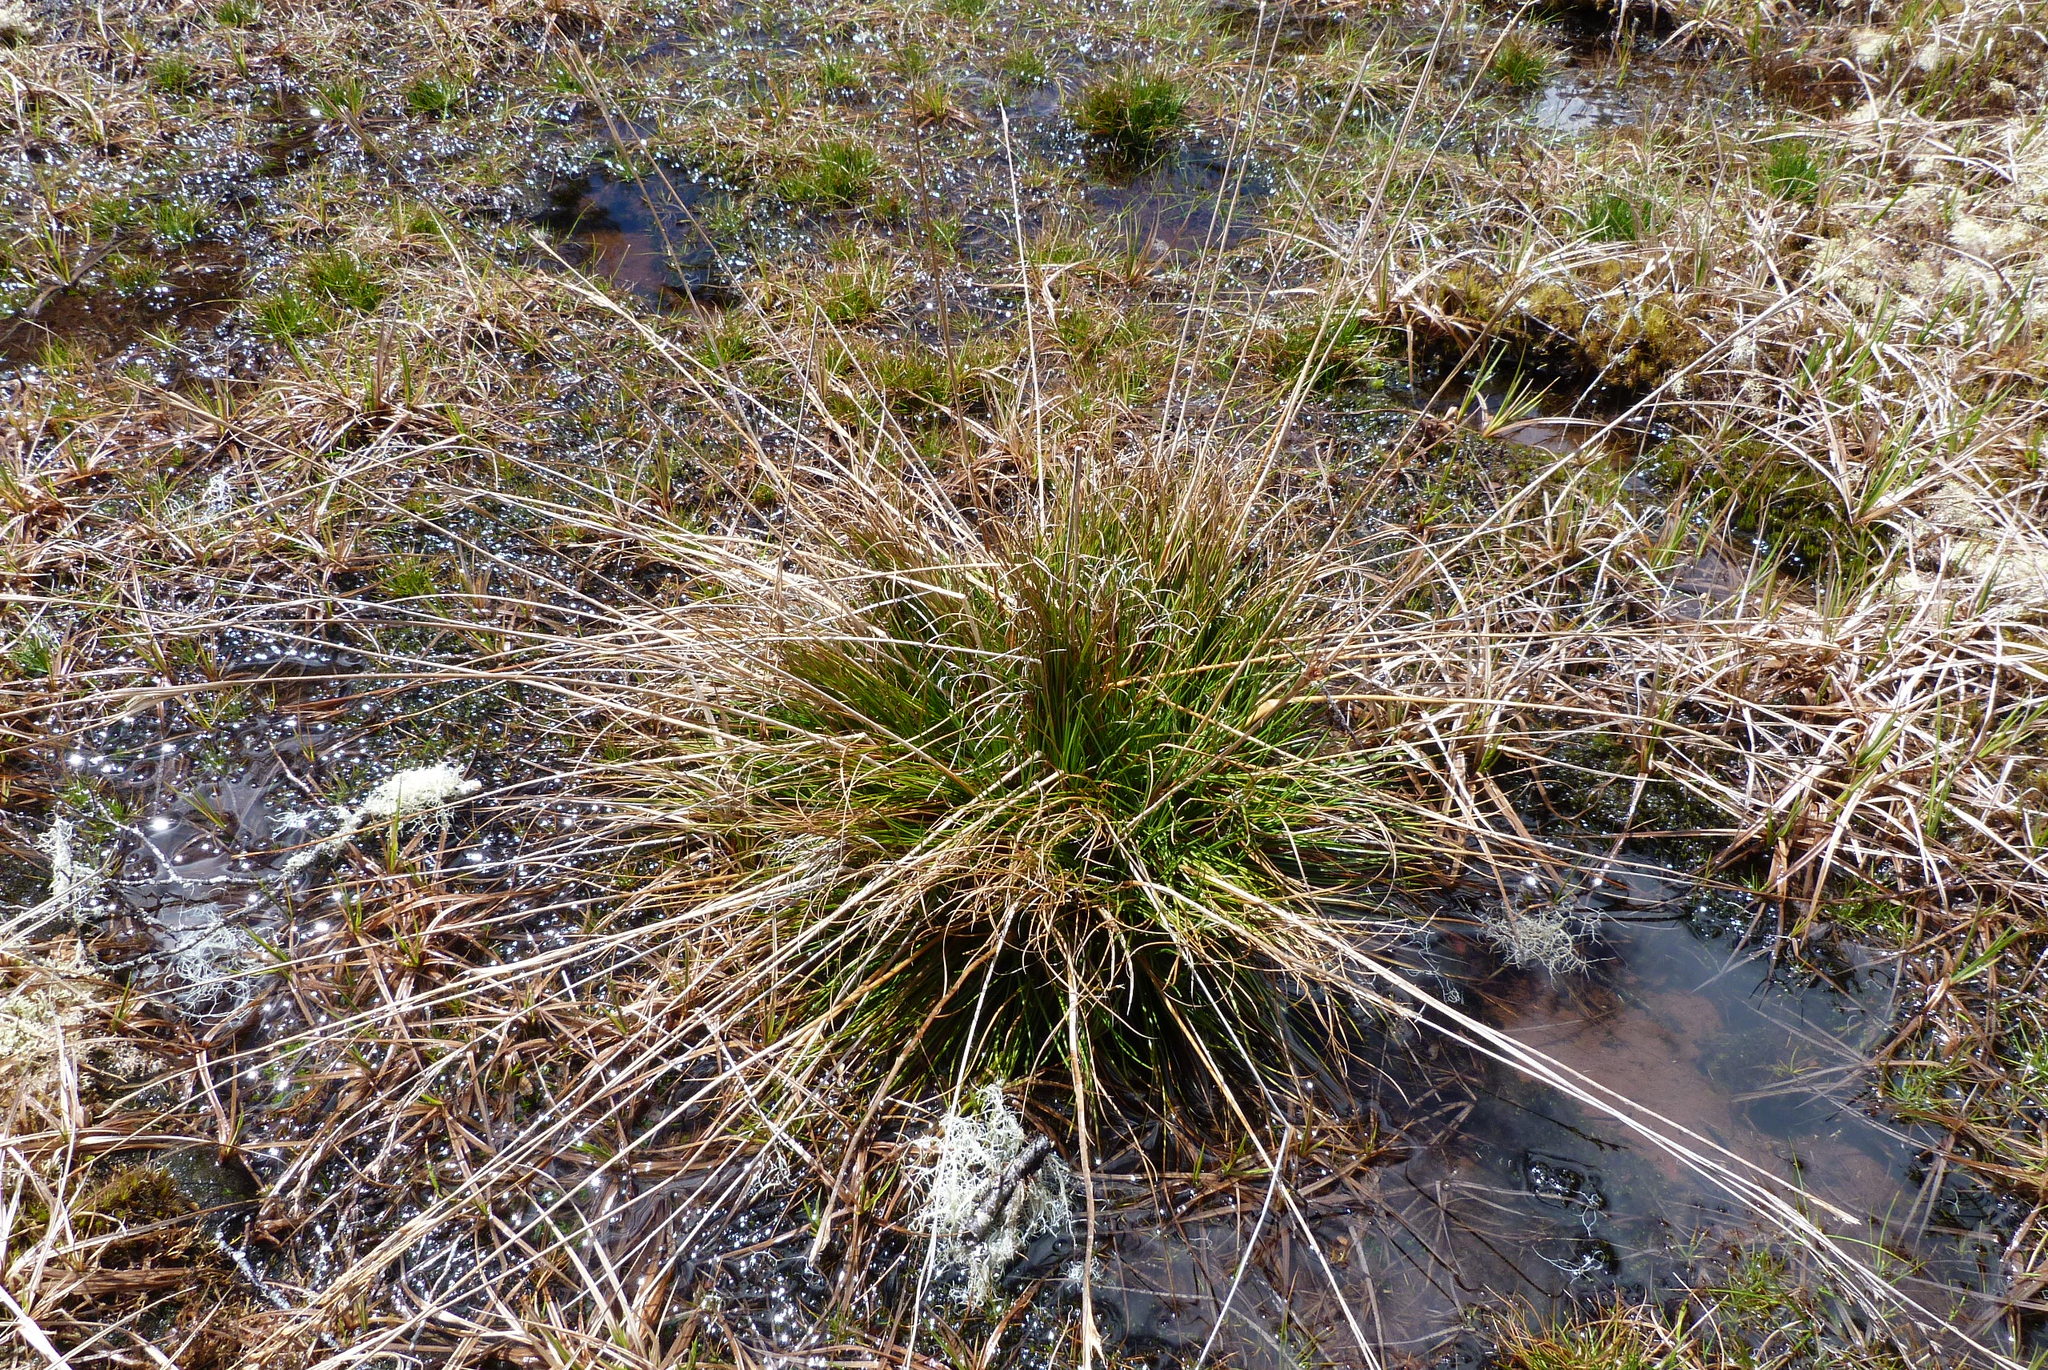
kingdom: Plantae
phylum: Tracheophyta
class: Liliopsida
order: Poales
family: Juncaceae
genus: Juncus
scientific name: Juncus squarrosus
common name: Heath rush
